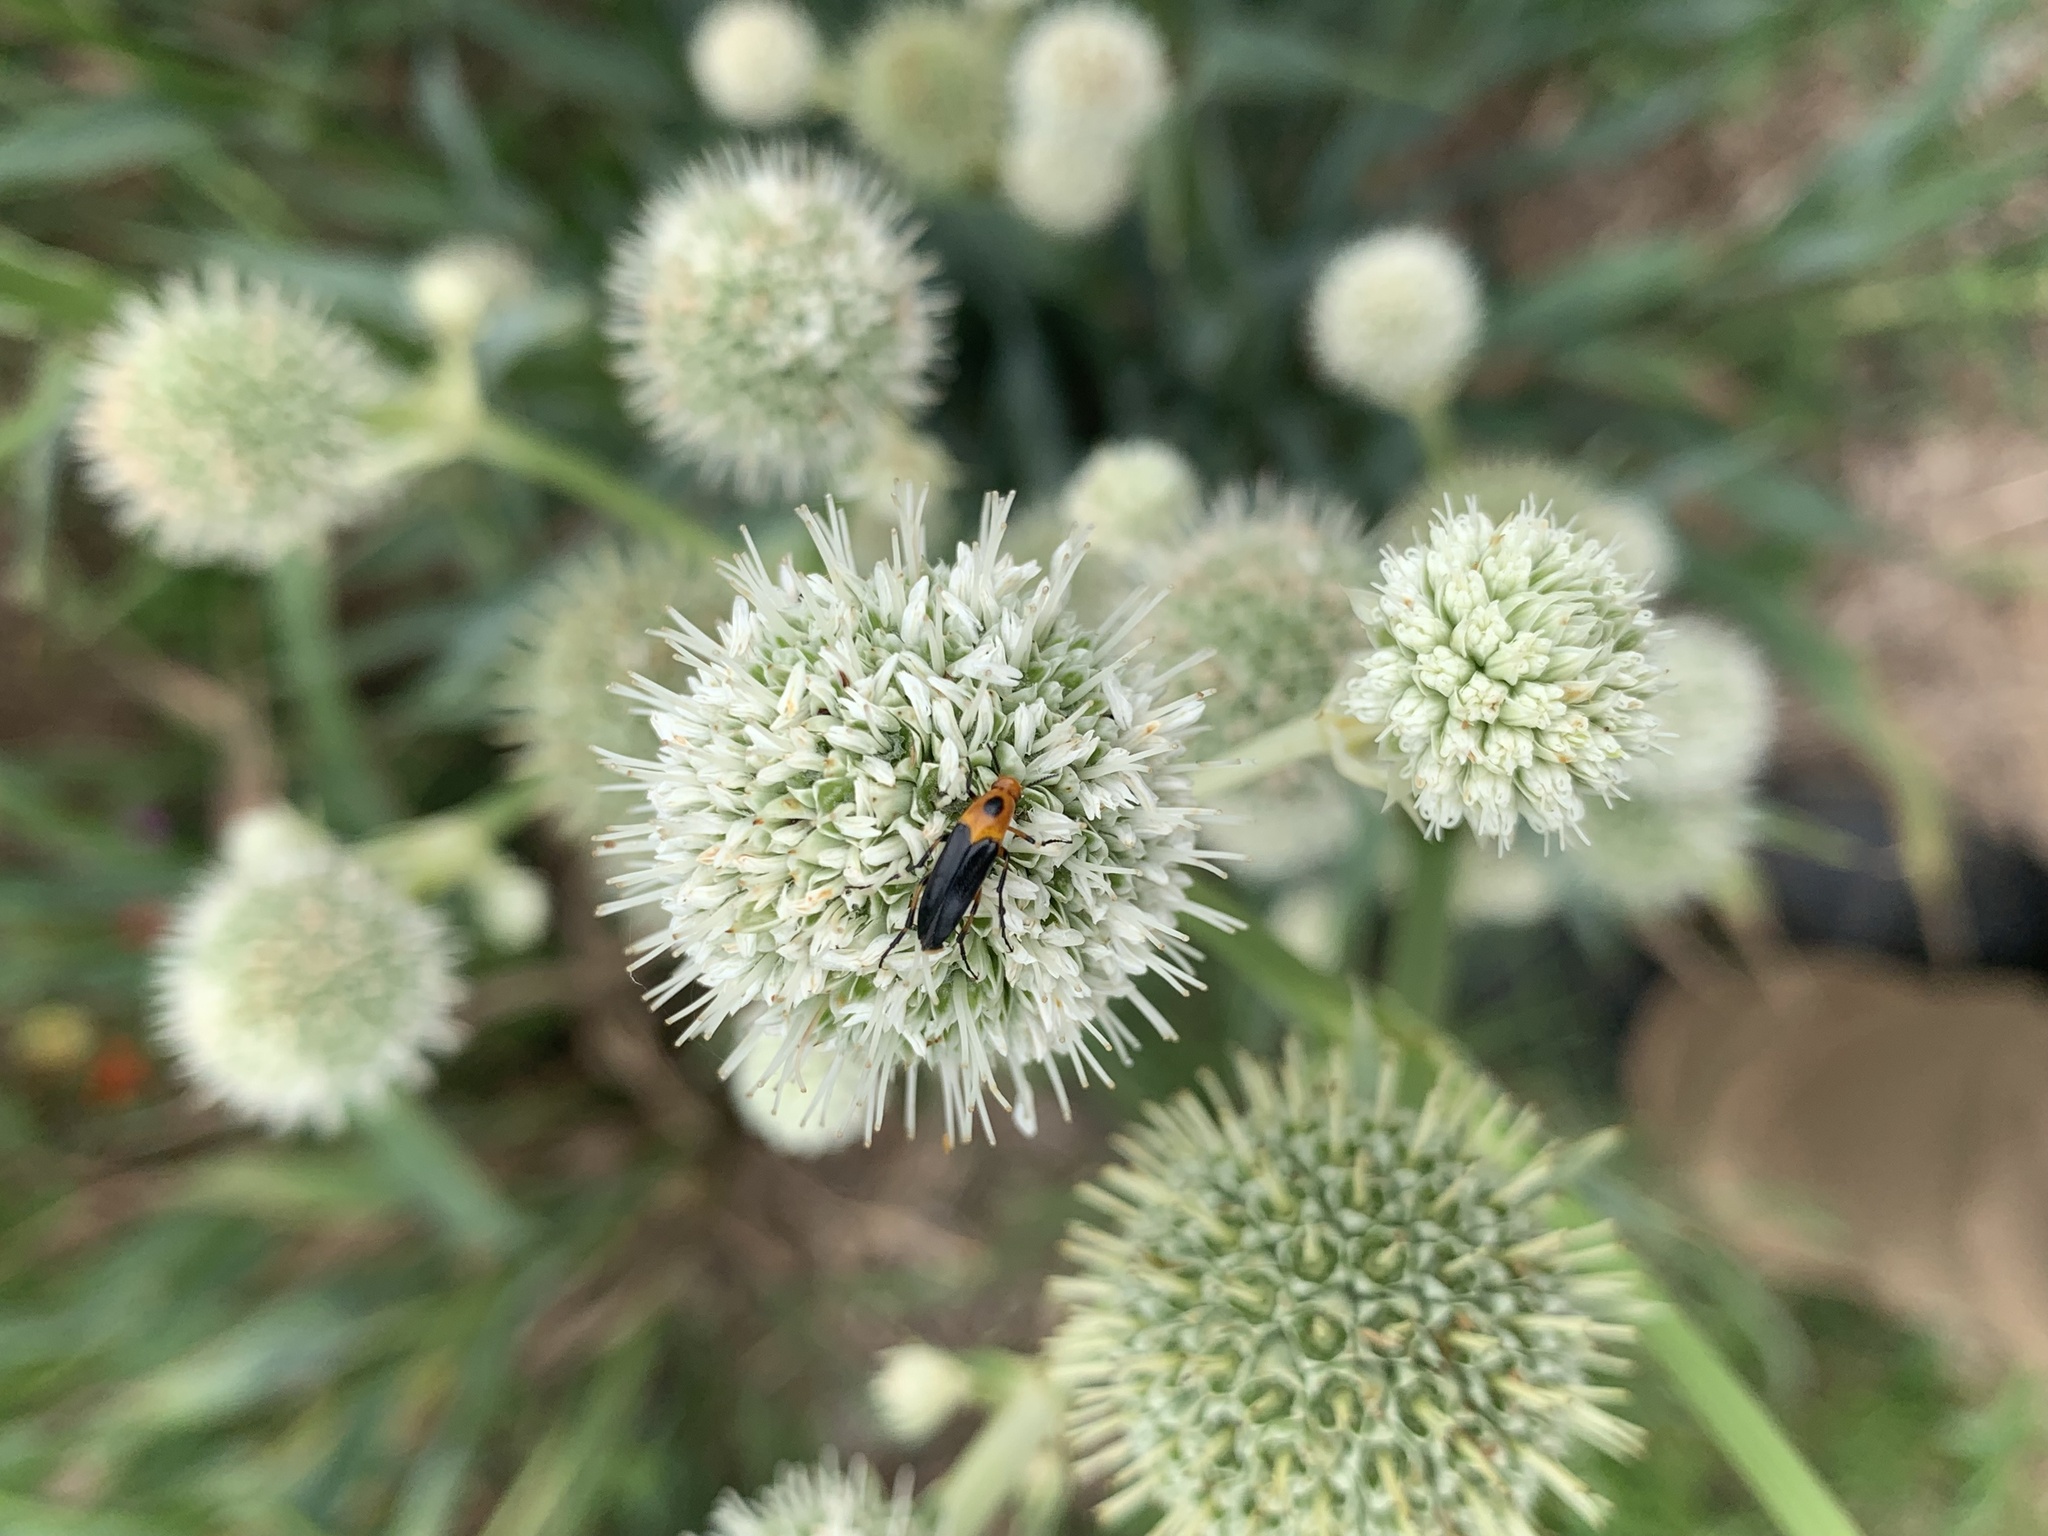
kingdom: Animalia
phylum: Arthropoda
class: Insecta
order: Coleoptera
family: Ripiphoridae
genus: Macrosiagon
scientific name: Macrosiagon limbatum
